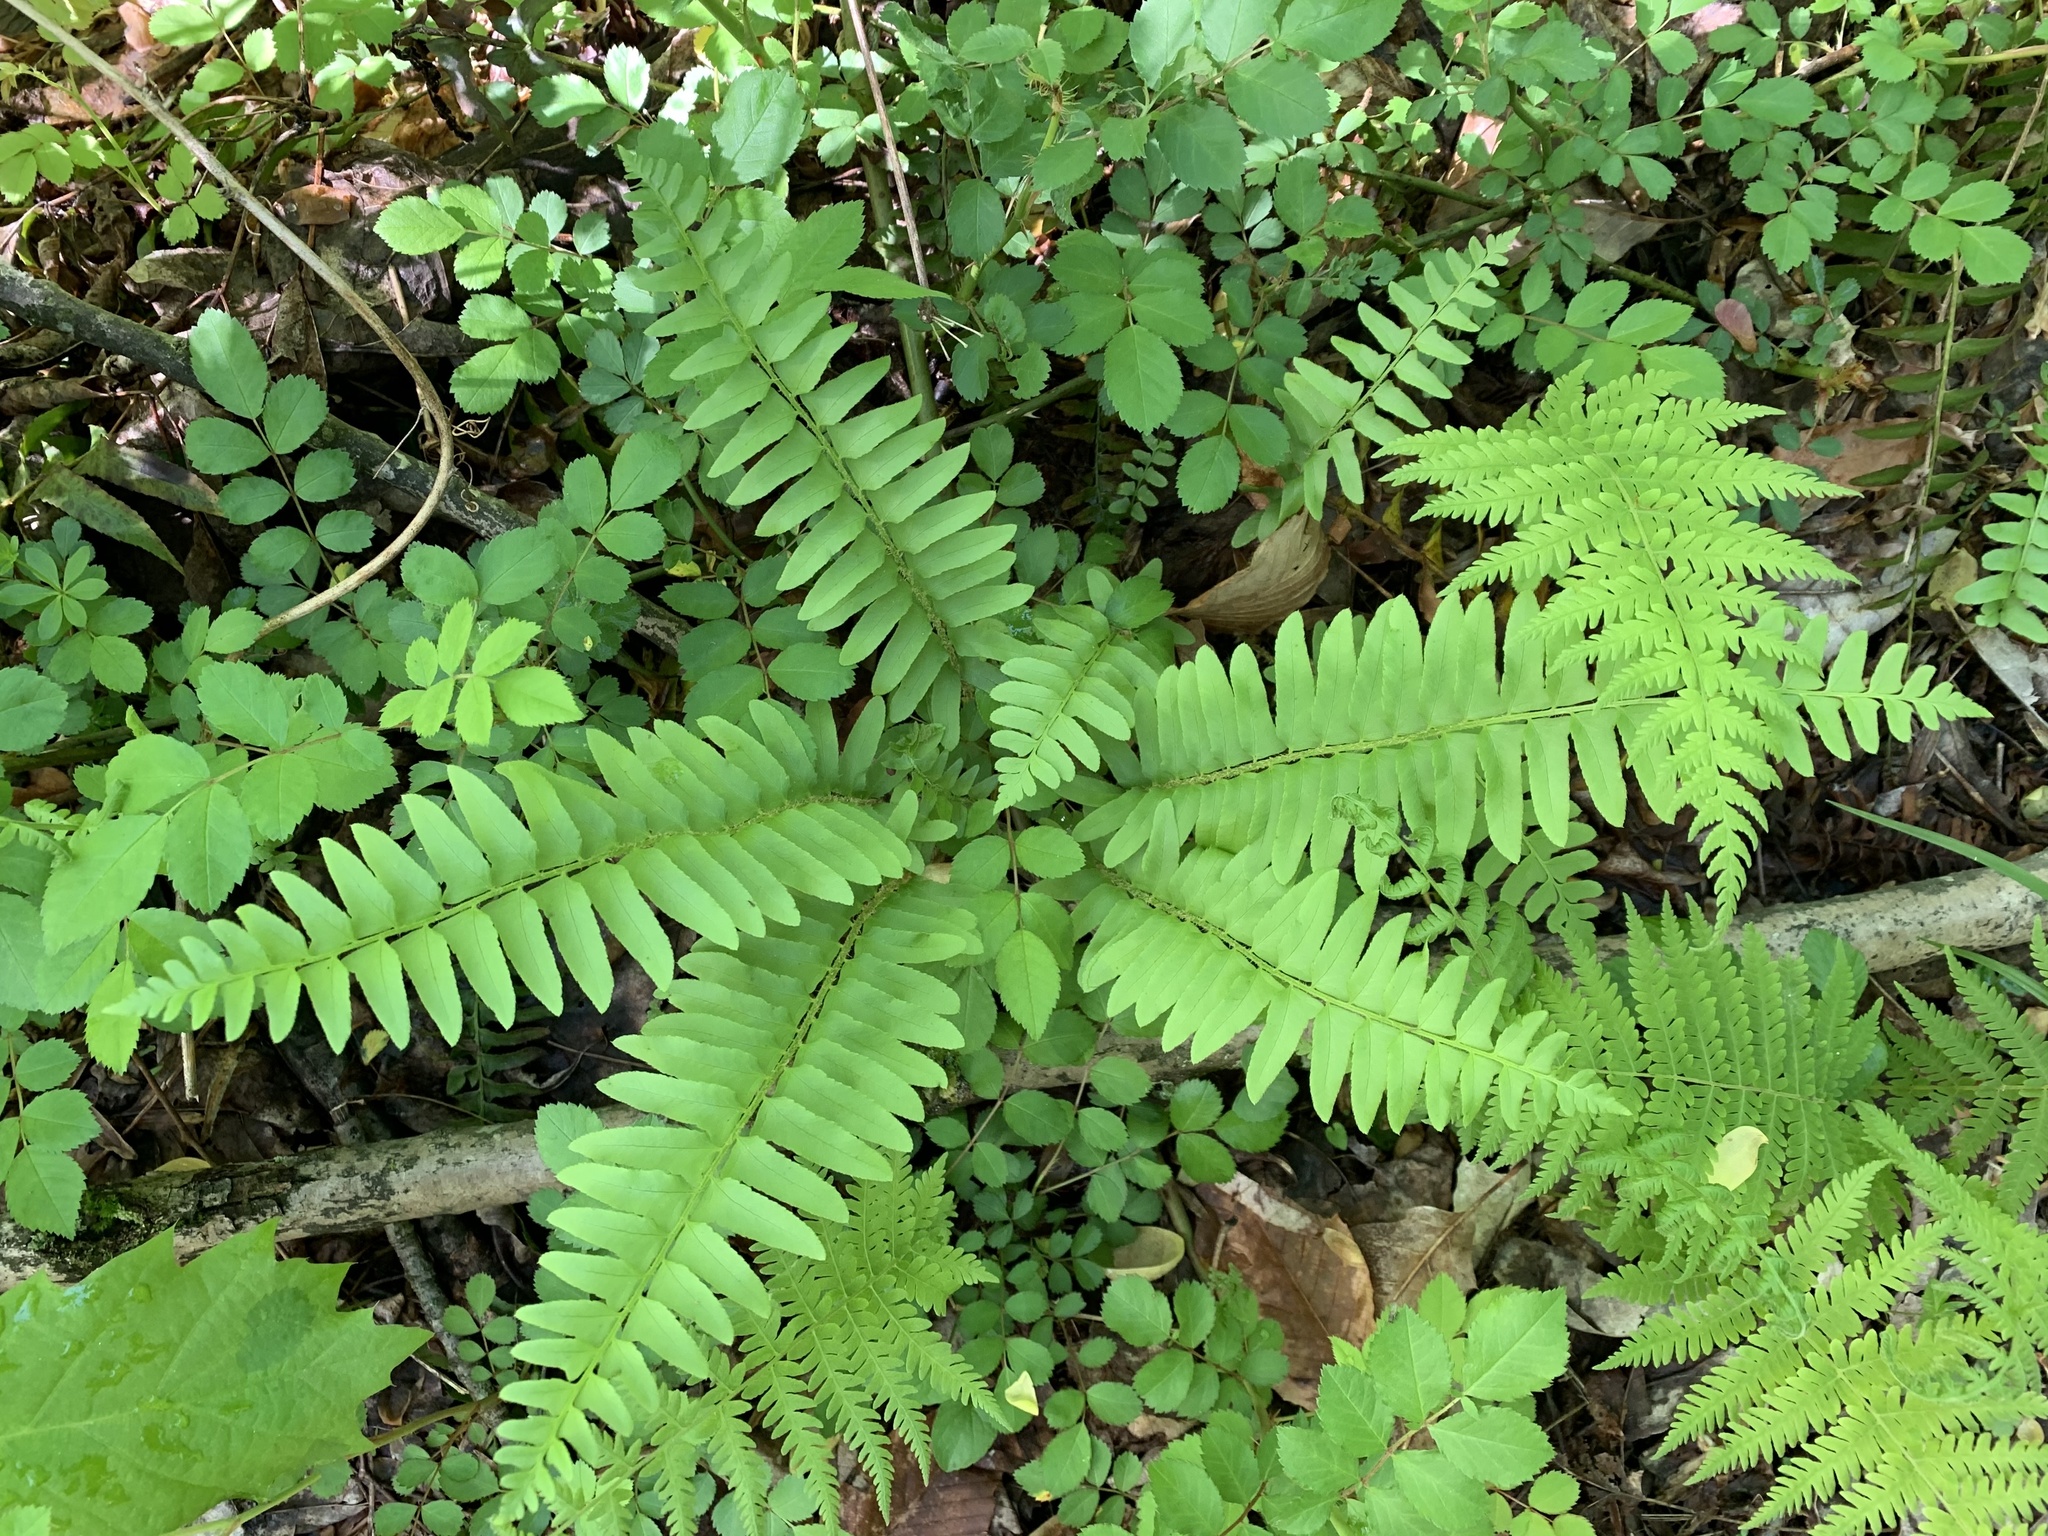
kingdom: Plantae
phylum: Tracheophyta
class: Polypodiopsida
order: Polypodiales
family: Dryopteridaceae
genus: Polystichum
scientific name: Polystichum acrostichoides
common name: Christmas fern
